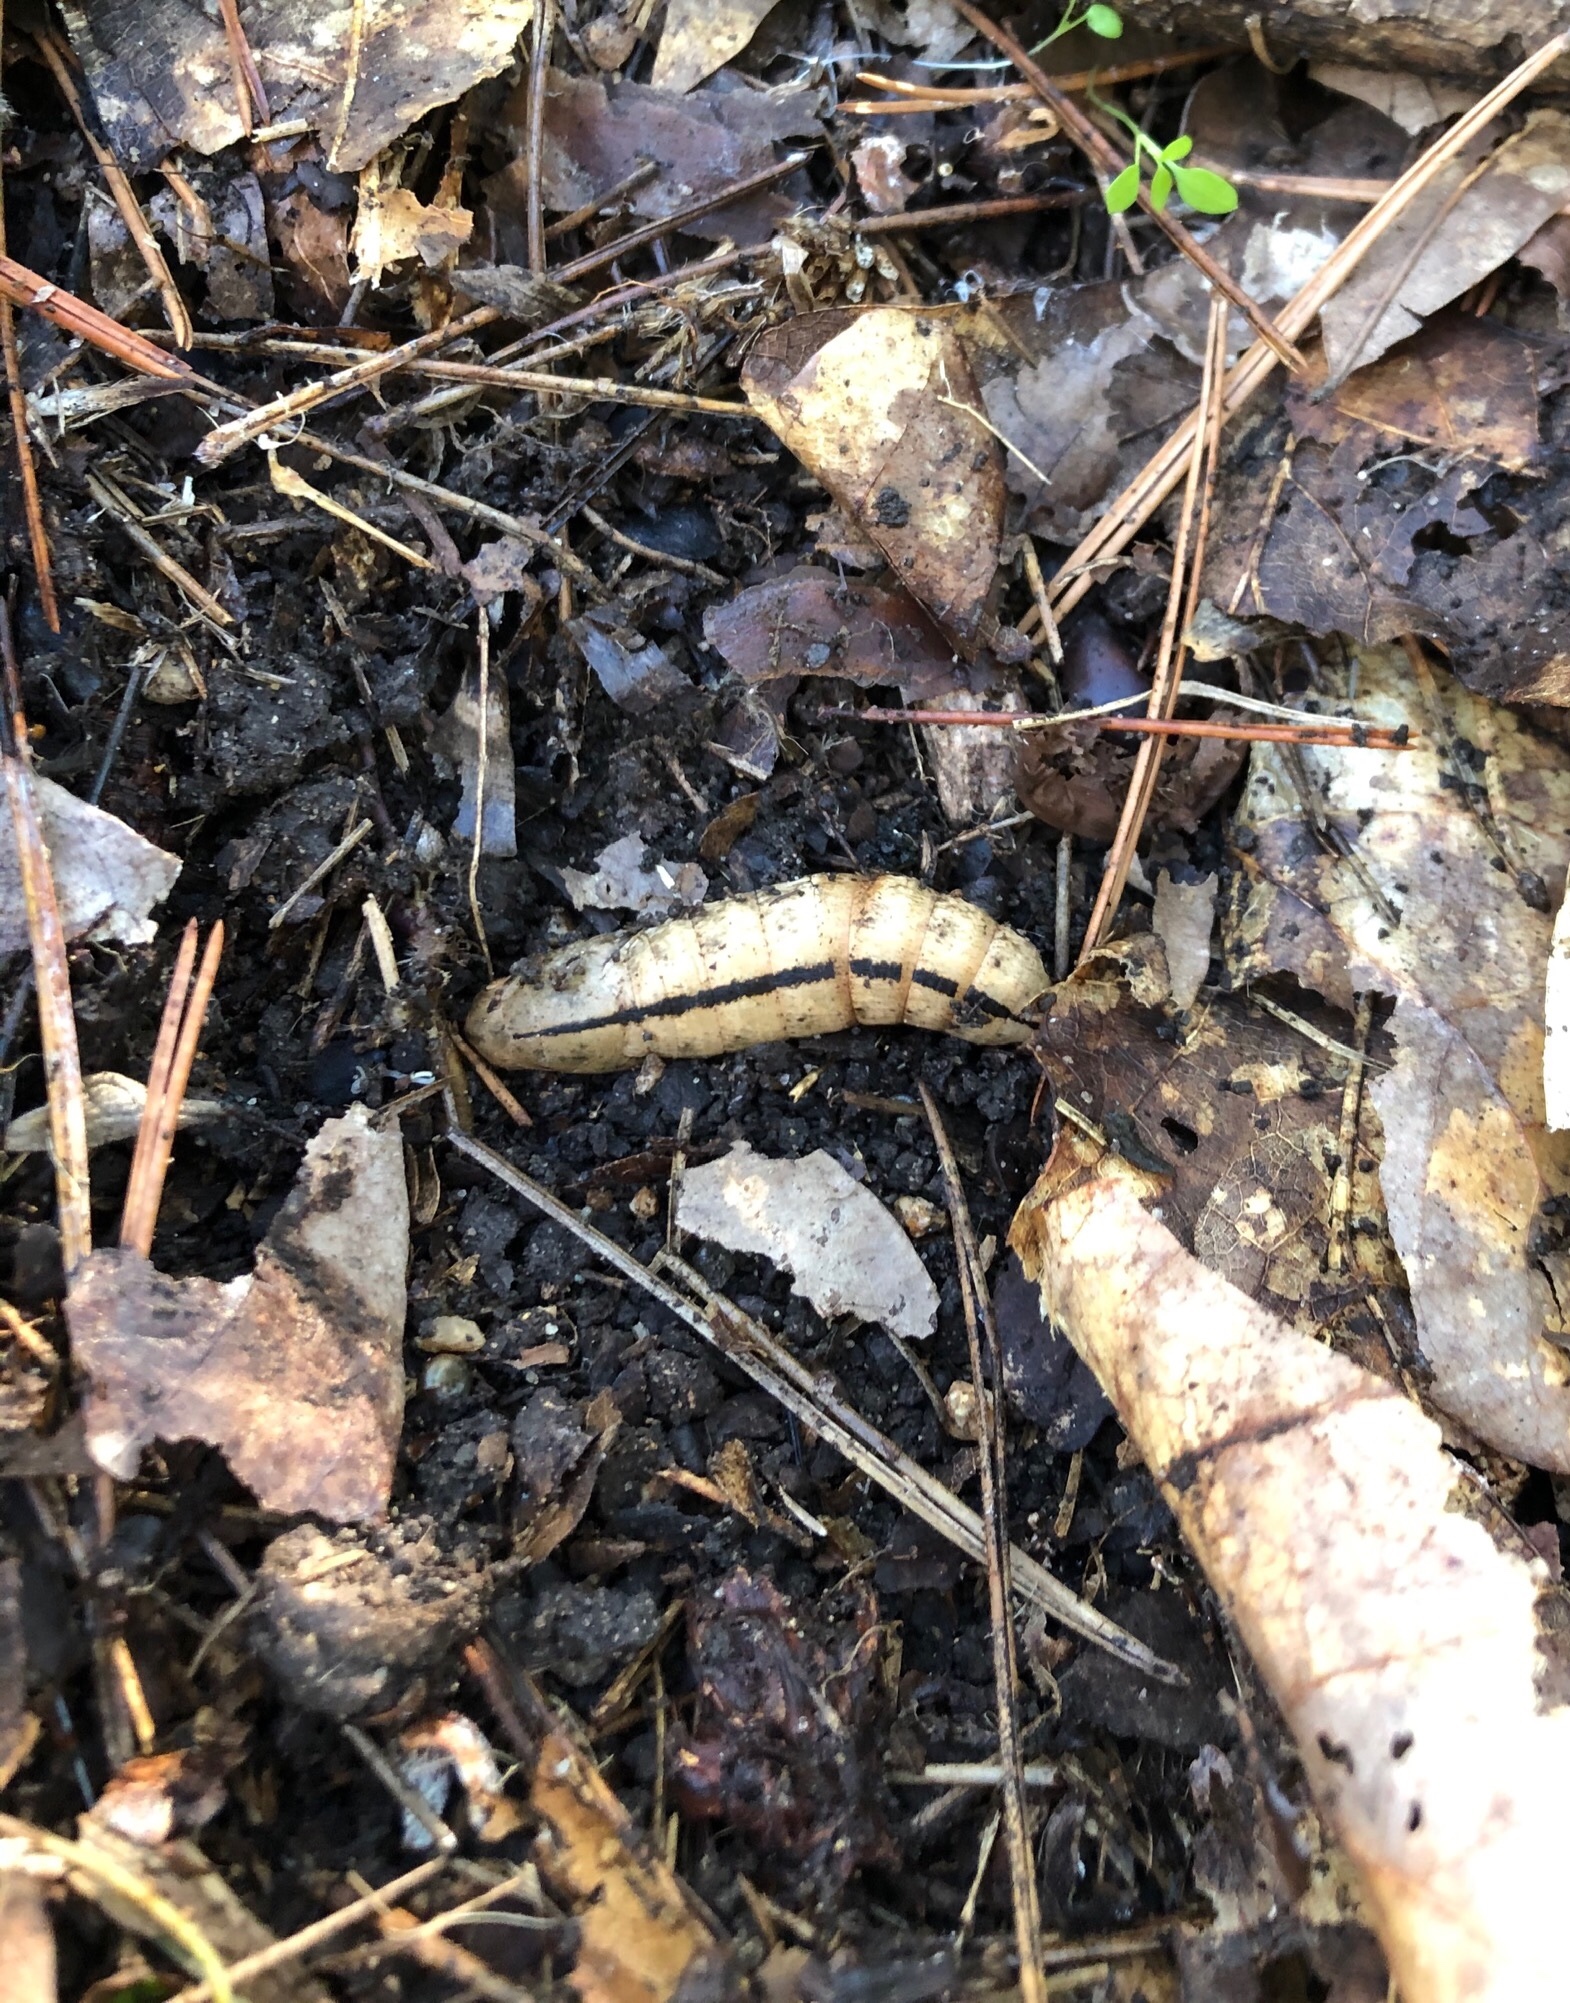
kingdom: Animalia
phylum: Arthropoda
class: Insecta
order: Lepidoptera
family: Sphingidae
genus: Xylophanes
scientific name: Xylophanes tersa
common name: Tersa sphinx
